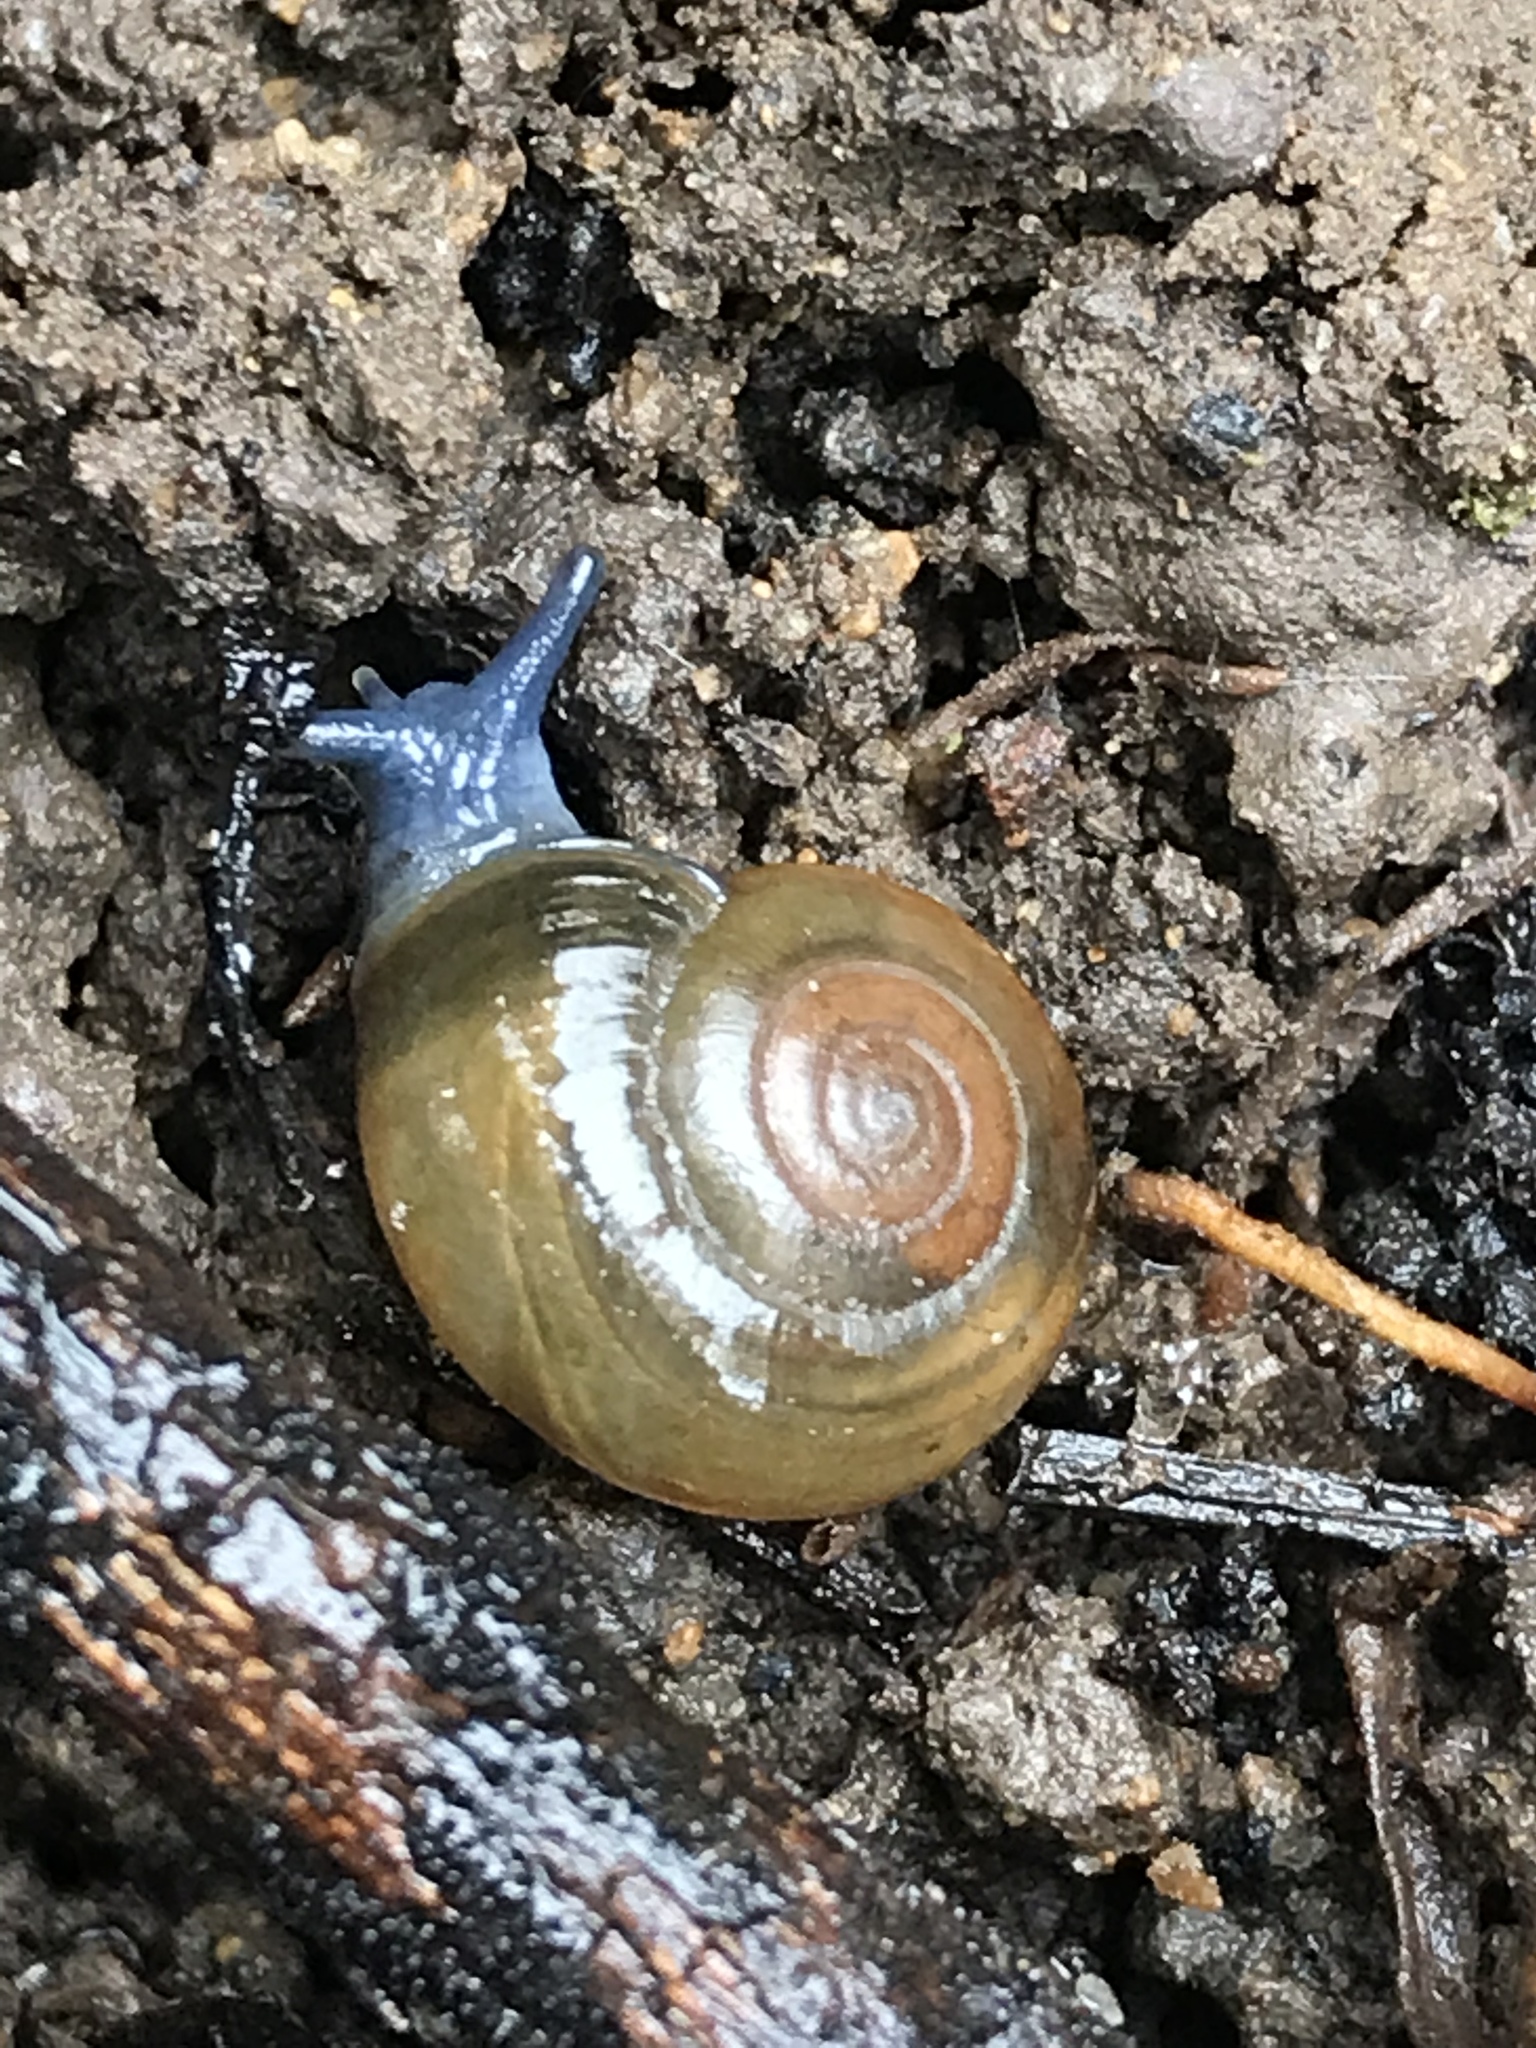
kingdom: Animalia
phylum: Mollusca
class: Gastropoda
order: Stylommatophora
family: Oxychilidae
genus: Oxychilus
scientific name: Oxychilus draparnaudi
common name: Draparnaud's glass snail
